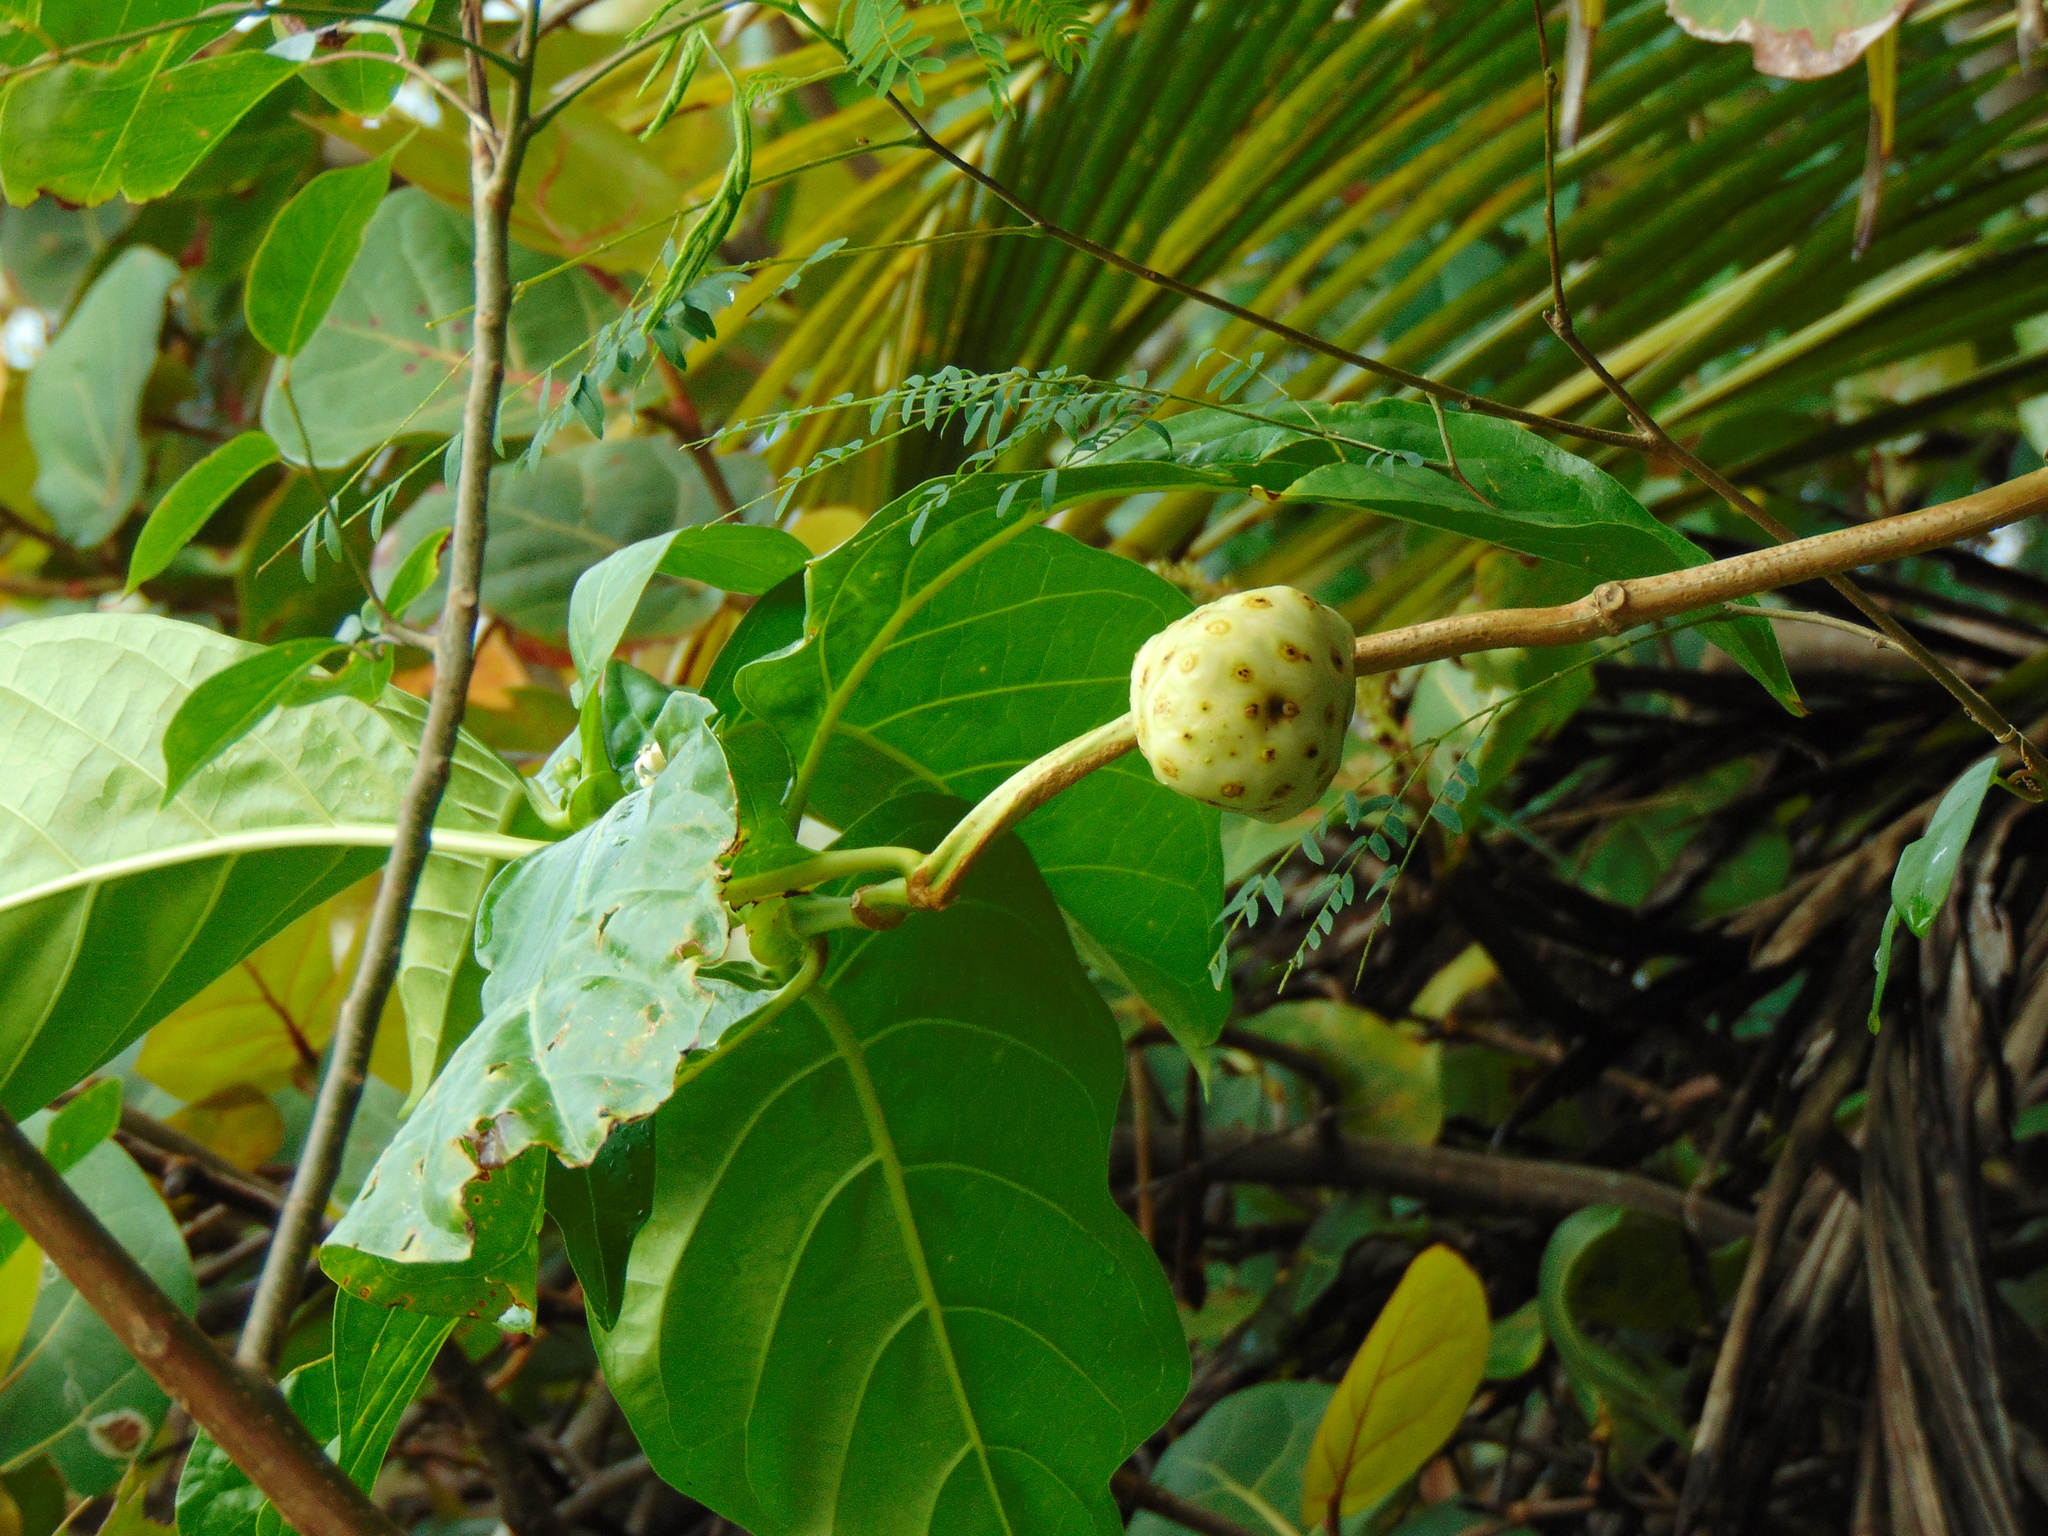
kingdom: Plantae
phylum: Tracheophyta
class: Magnoliopsida
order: Gentianales
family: Rubiaceae
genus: Morinda
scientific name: Morinda citrifolia
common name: Indian-mulberry
